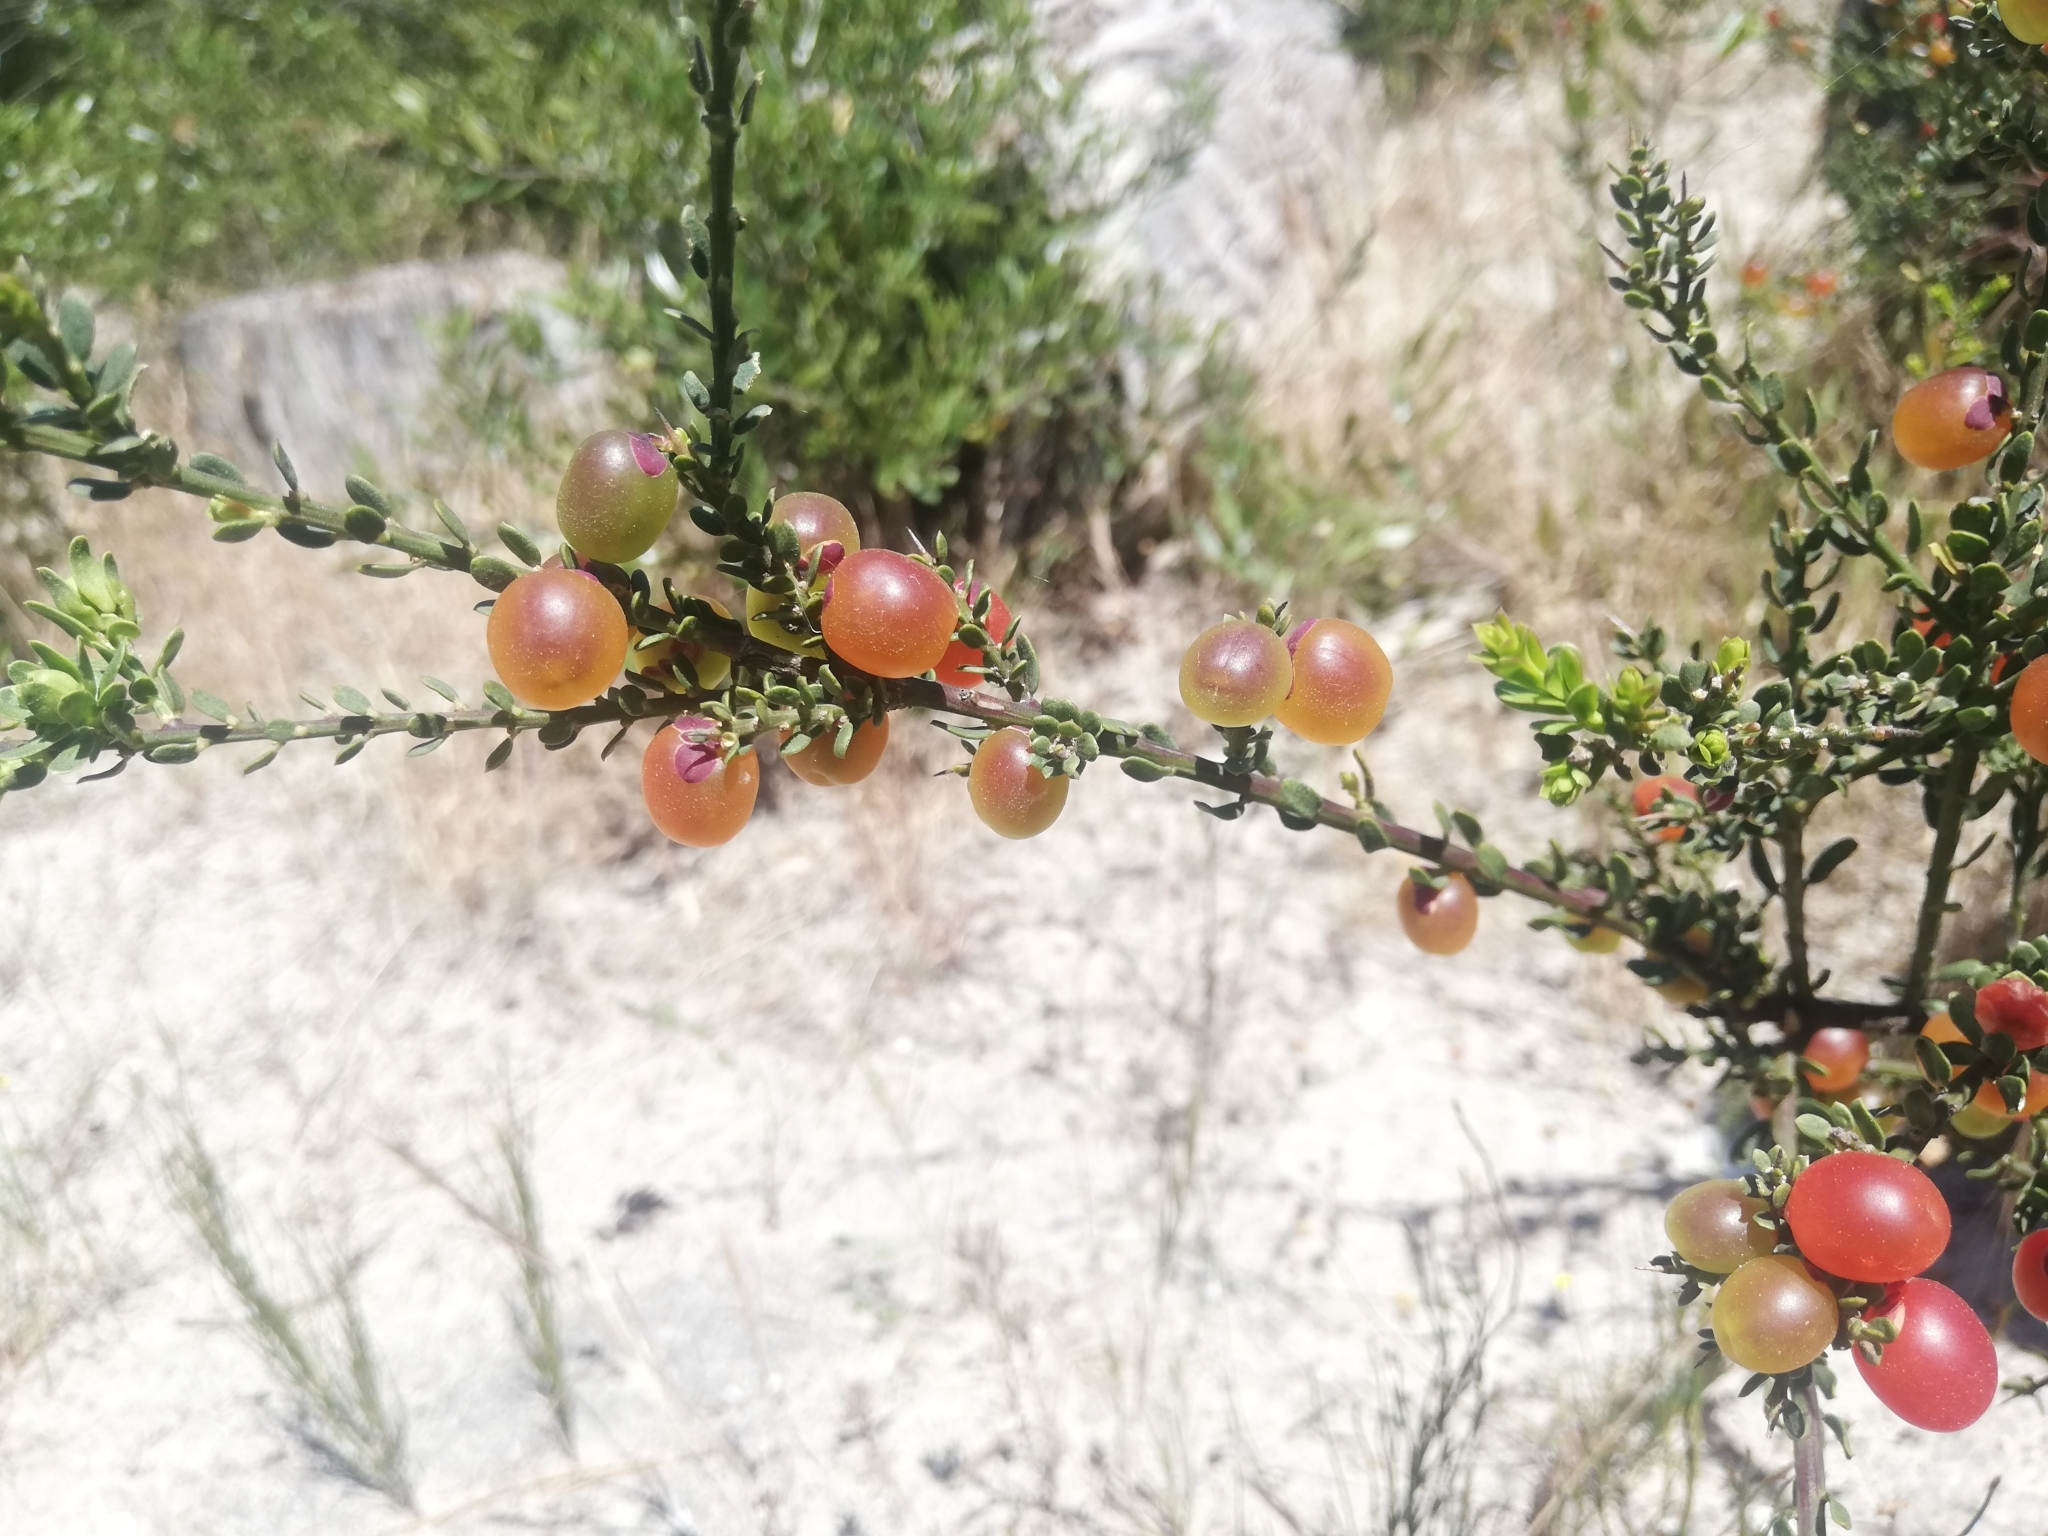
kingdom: Plantae
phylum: Tracheophyta
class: Magnoliopsida
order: Fabales
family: Polygalaceae
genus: Muraltia
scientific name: Muraltia spinosa
